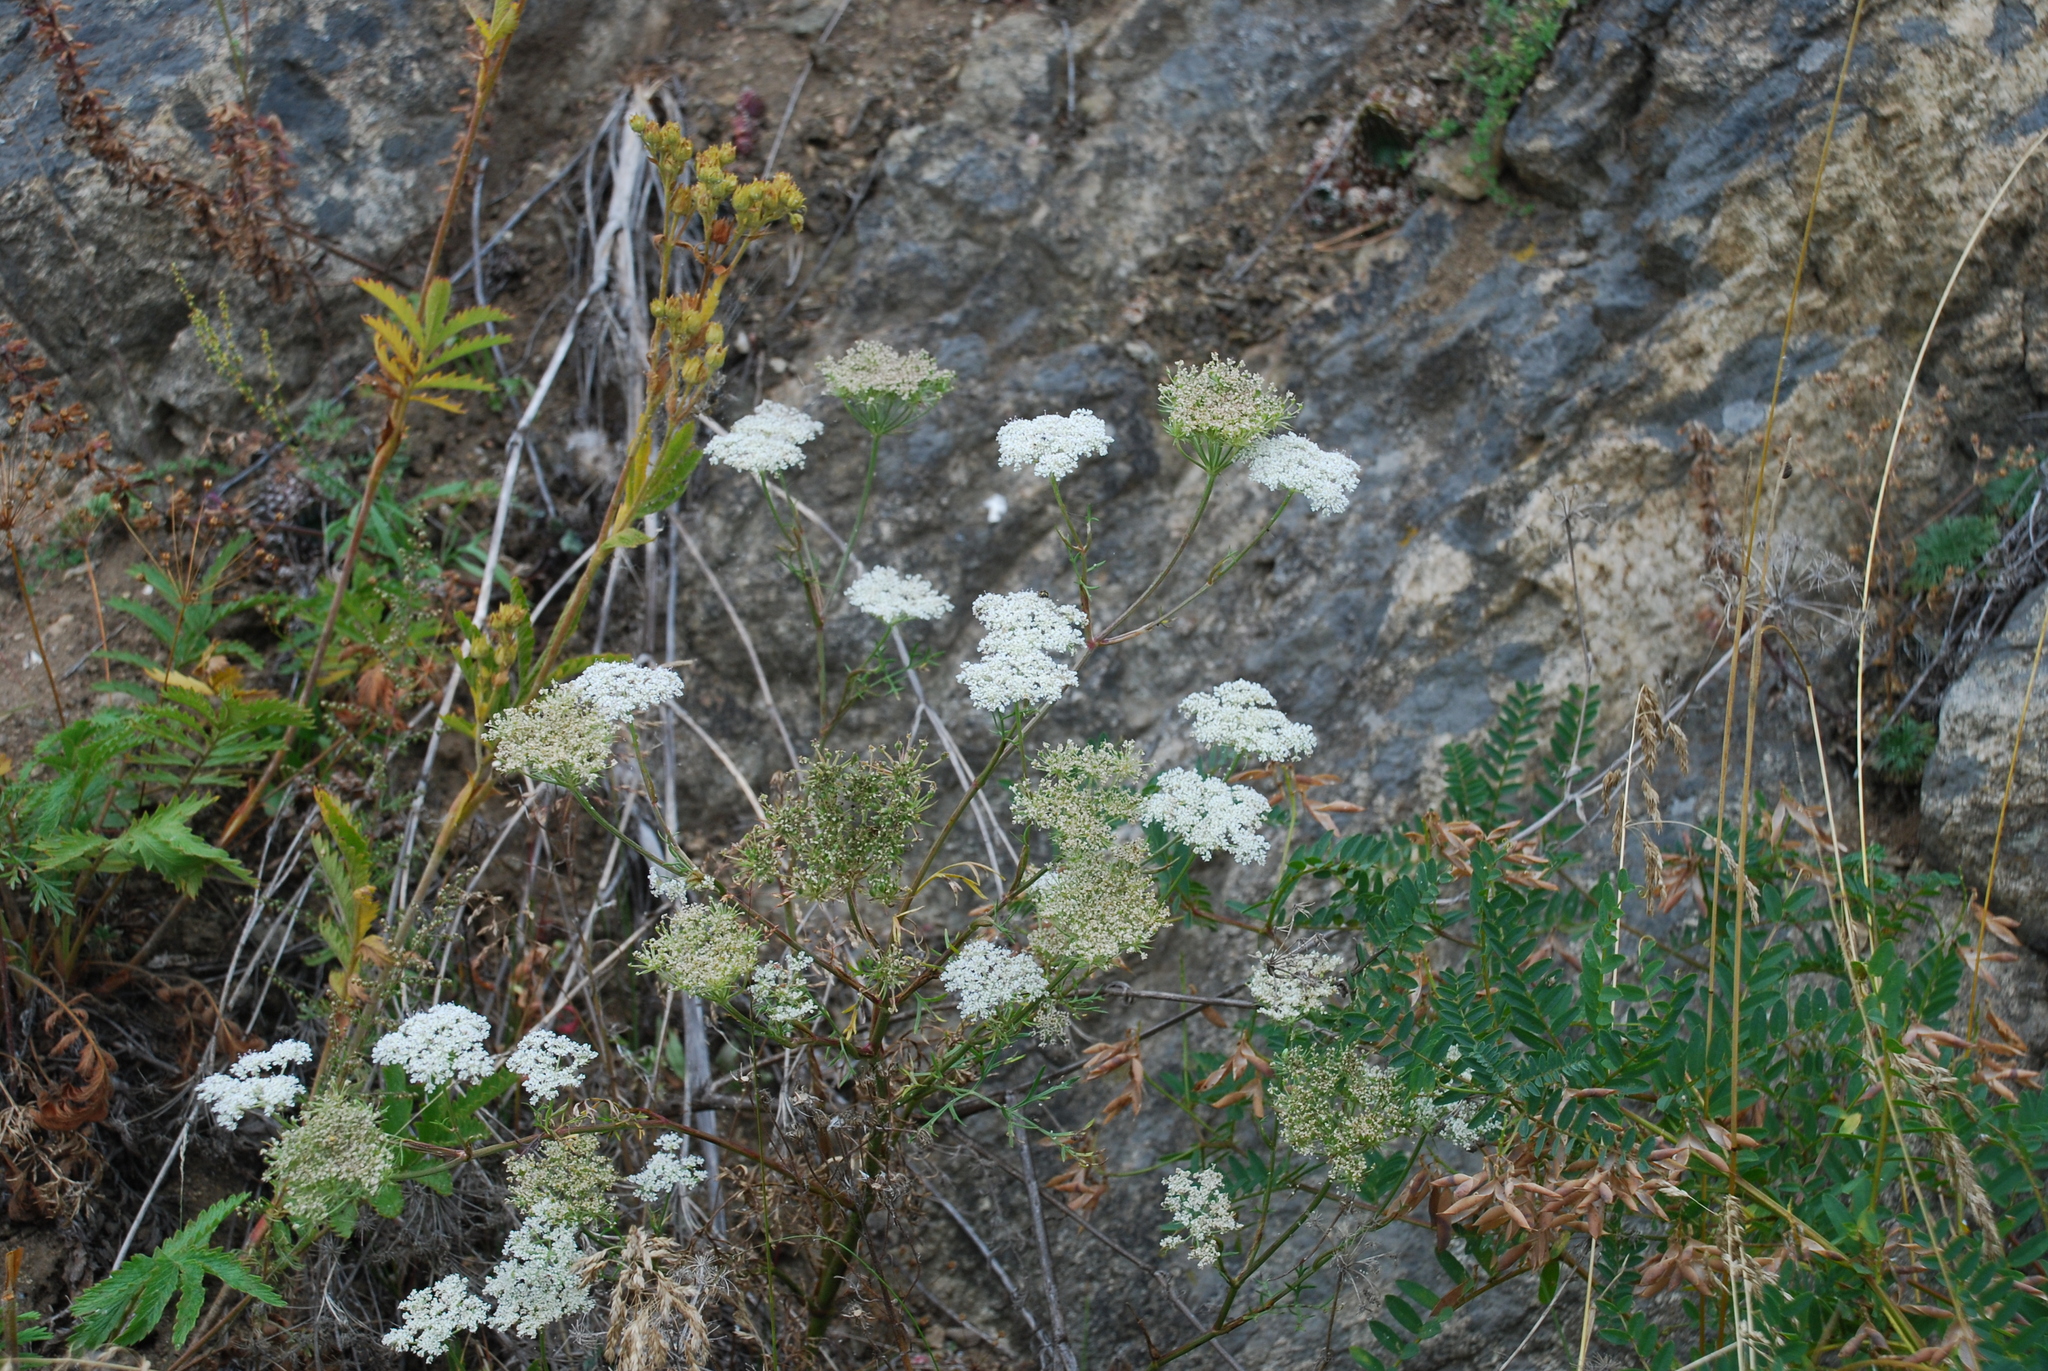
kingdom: Plantae
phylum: Tracheophyta
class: Magnoliopsida
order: Apiales
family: Apiaceae
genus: Kitagawia
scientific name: Kitagawia baicalensis
